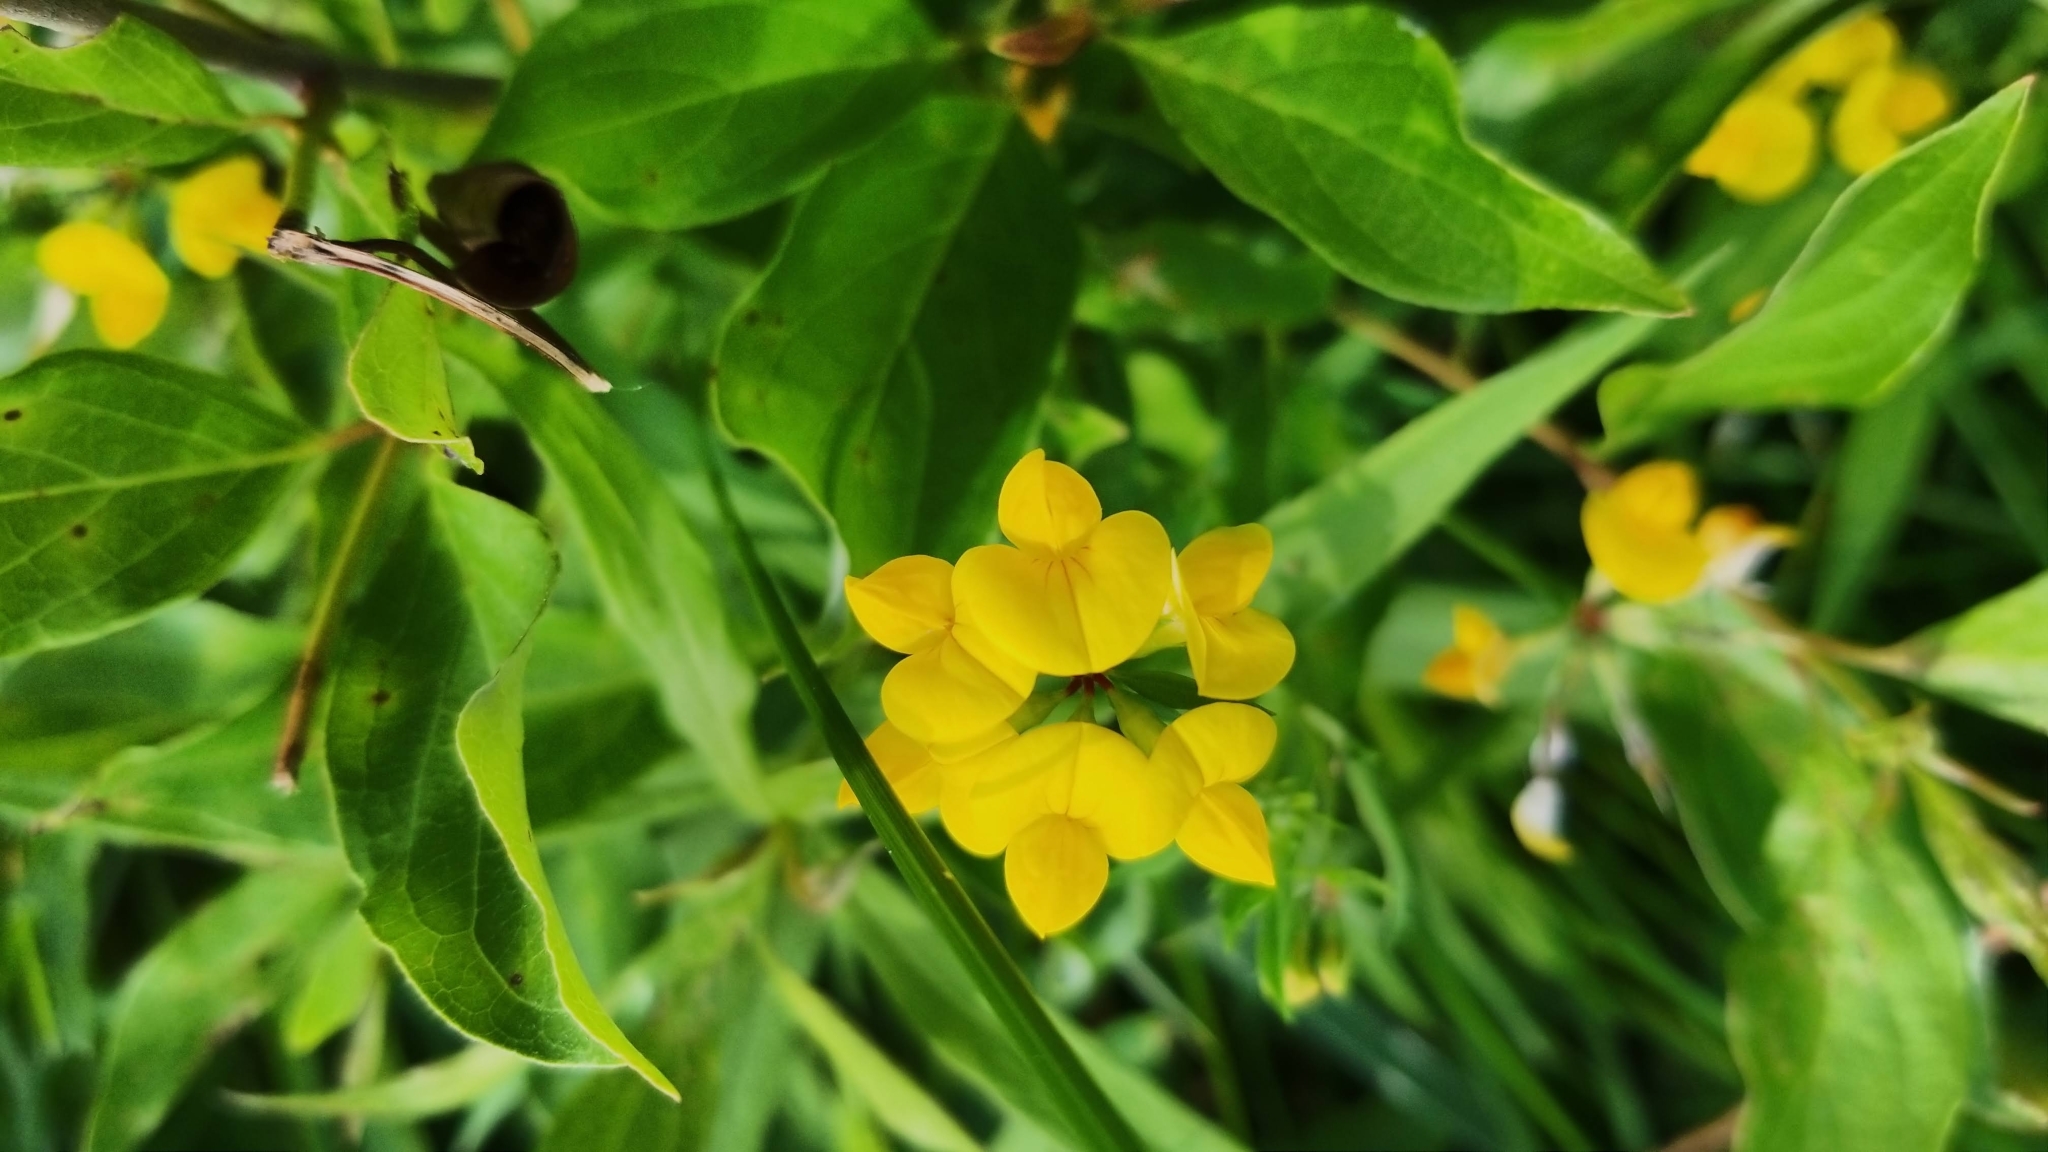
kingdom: Plantae
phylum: Tracheophyta
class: Magnoliopsida
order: Fabales
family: Fabaceae
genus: Lotus
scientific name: Lotus corniculatus
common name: Common bird's-foot-trefoil
